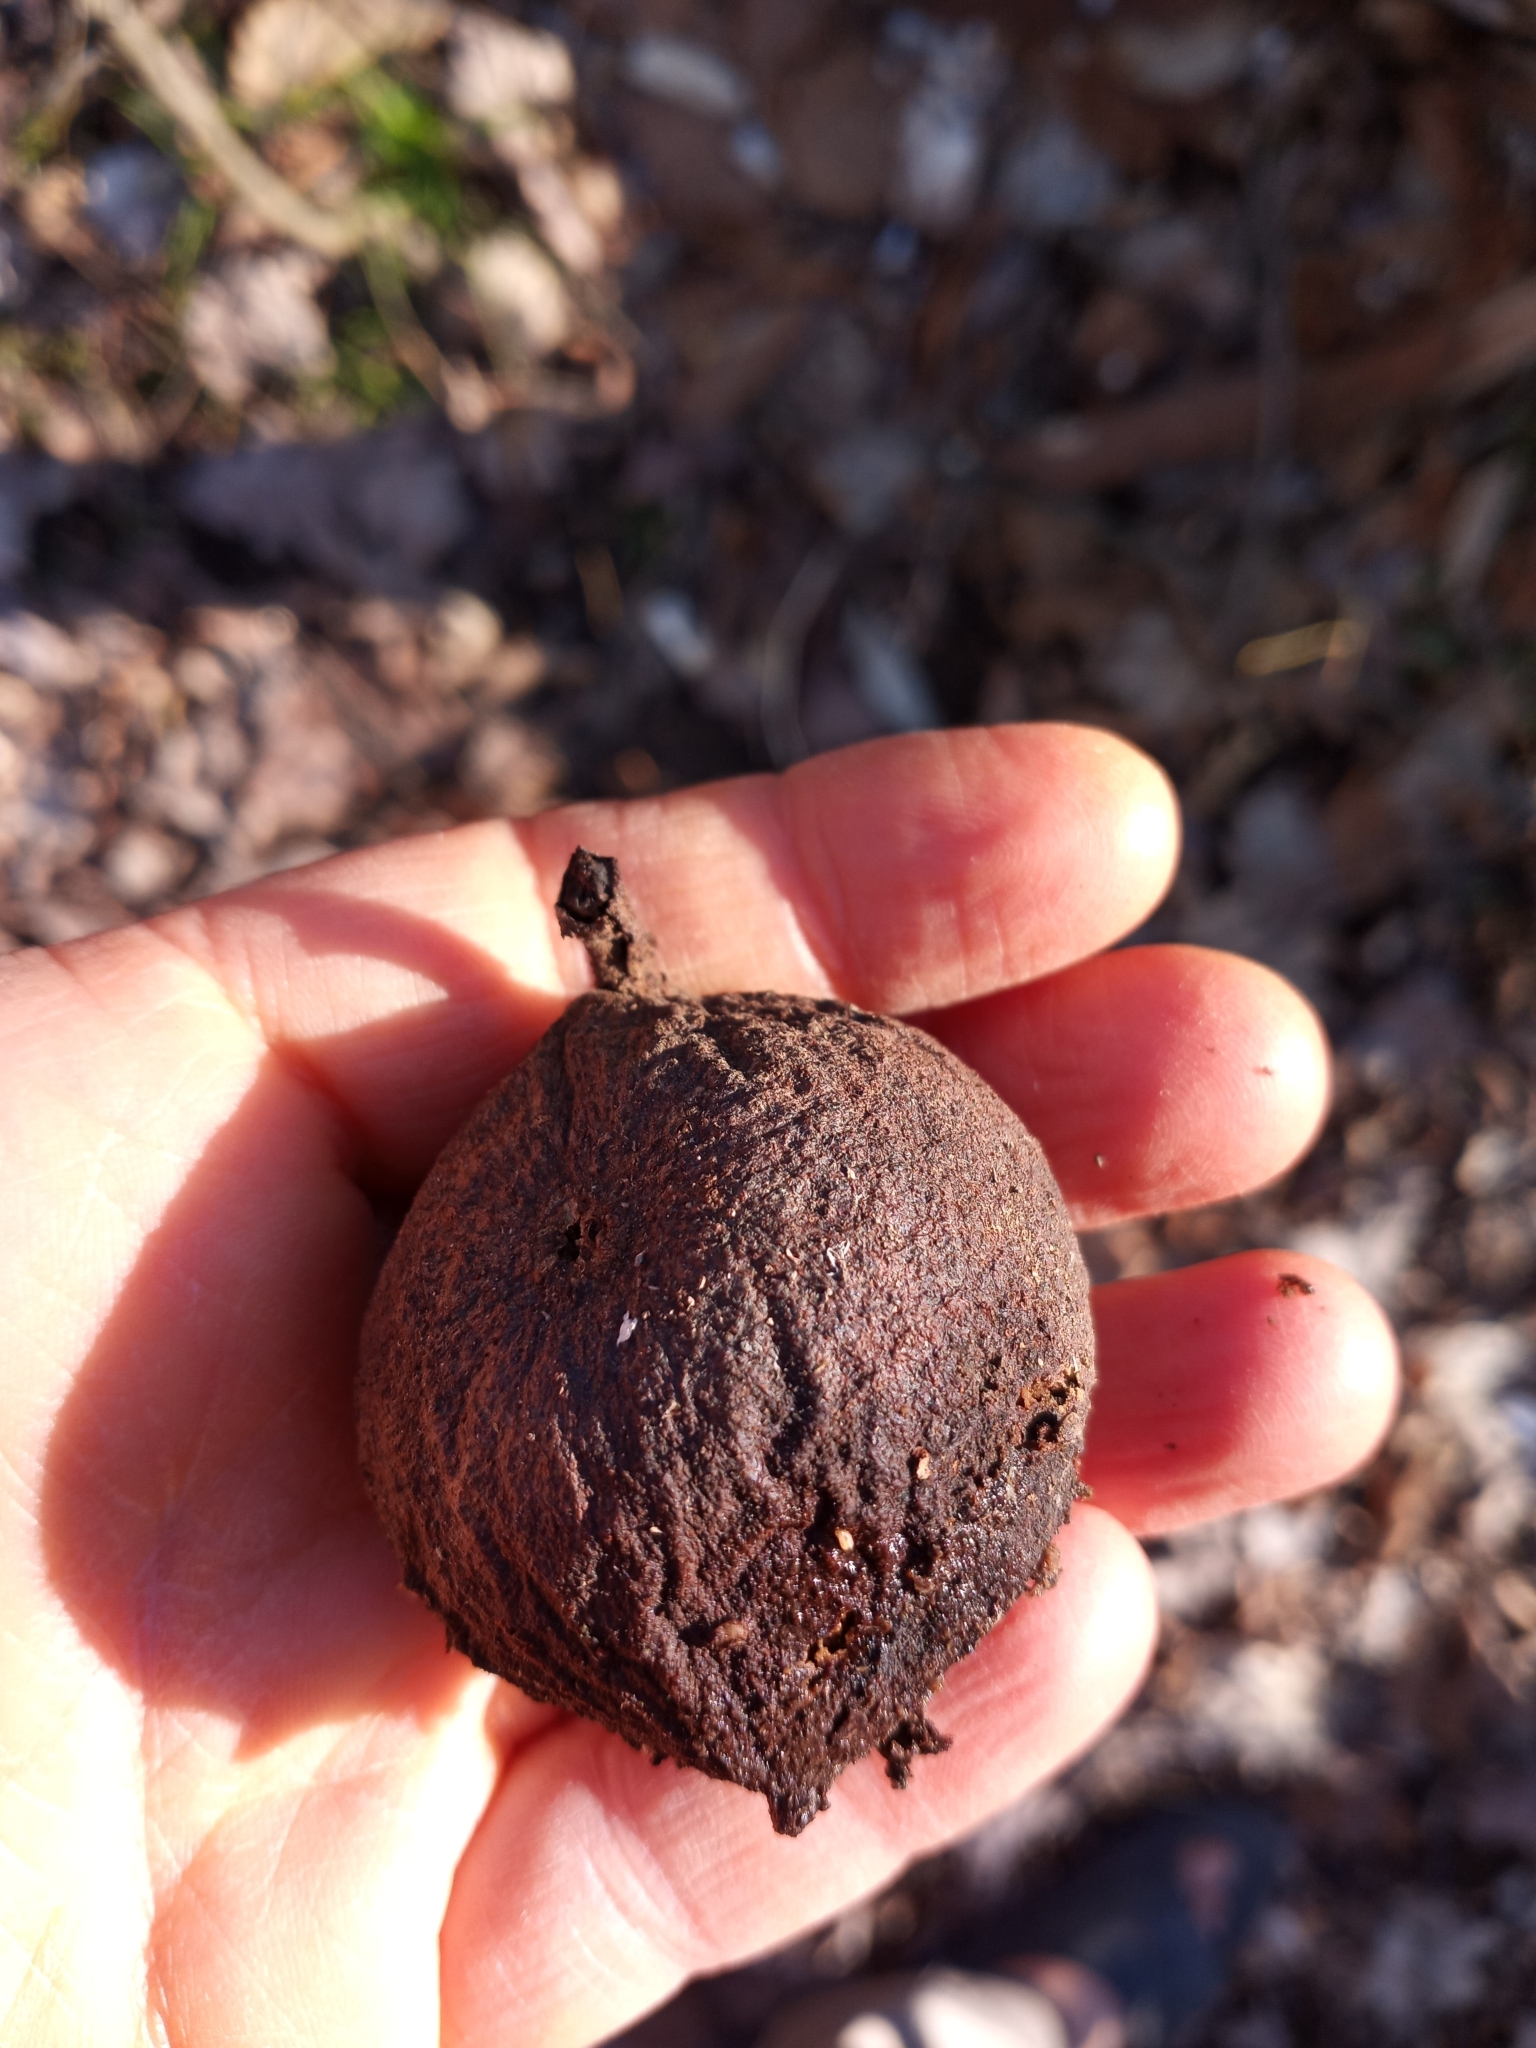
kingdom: Plantae
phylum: Tracheophyta
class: Magnoliopsida
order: Fagales
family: Juglandaceae
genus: Juglans
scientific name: Juglans nigra
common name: Black walnut
